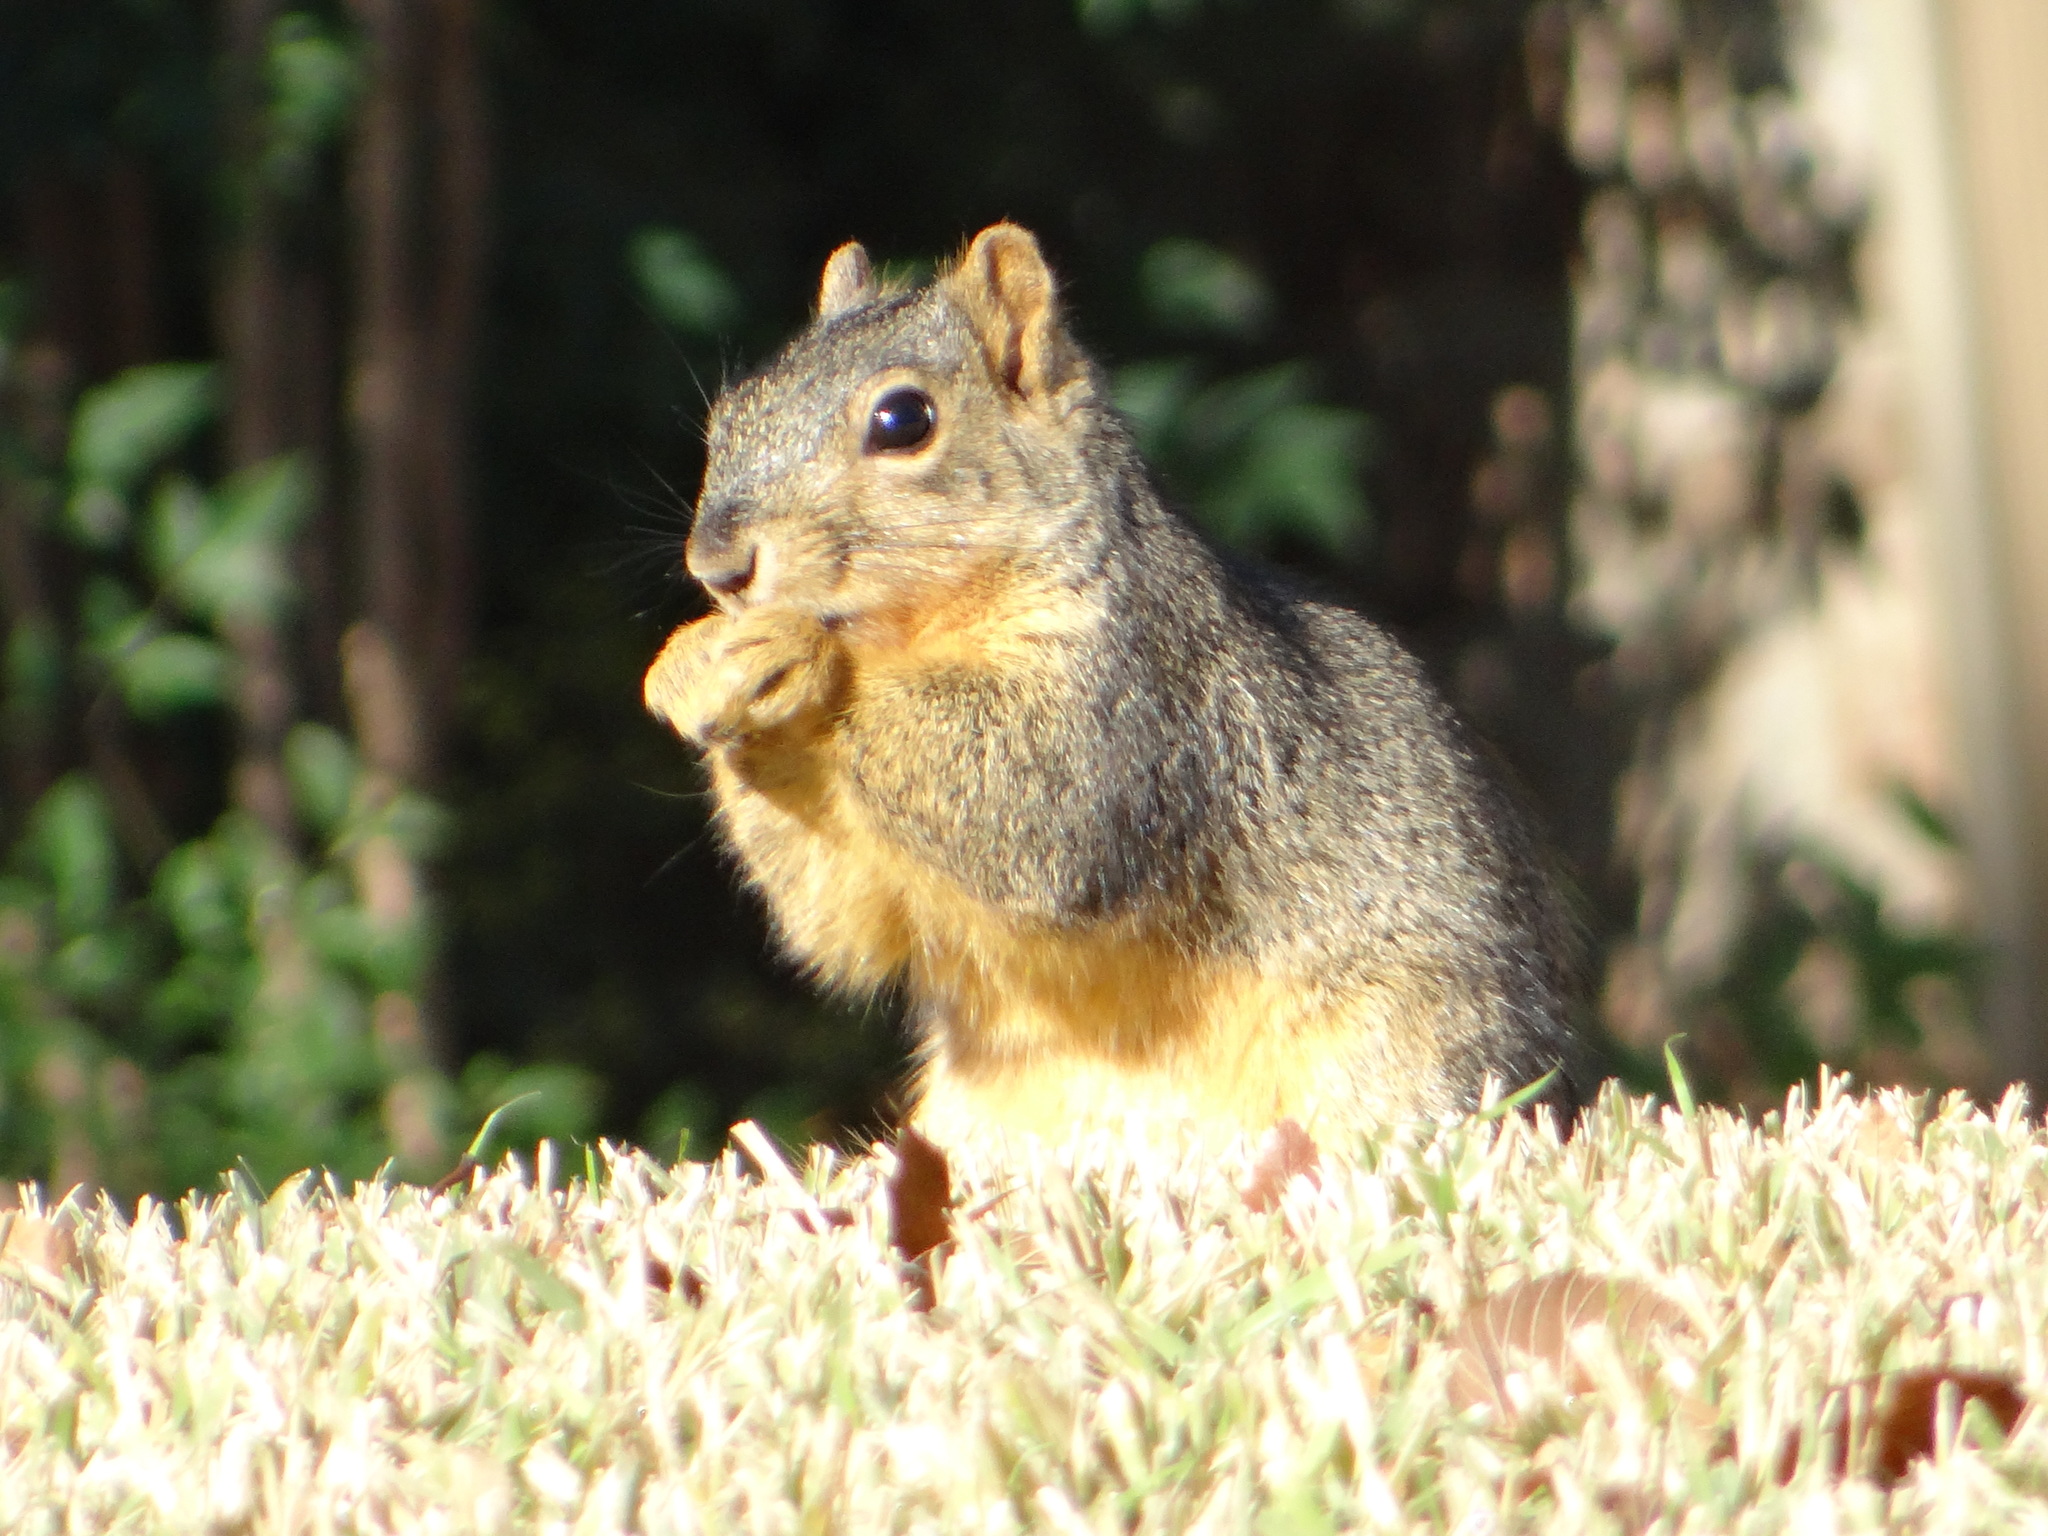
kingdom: Animalia
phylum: Chordata
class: Mammalia
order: Rodentia
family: Sciuridae
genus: Sciurus
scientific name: Sciurus niger
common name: Fox squirrel
